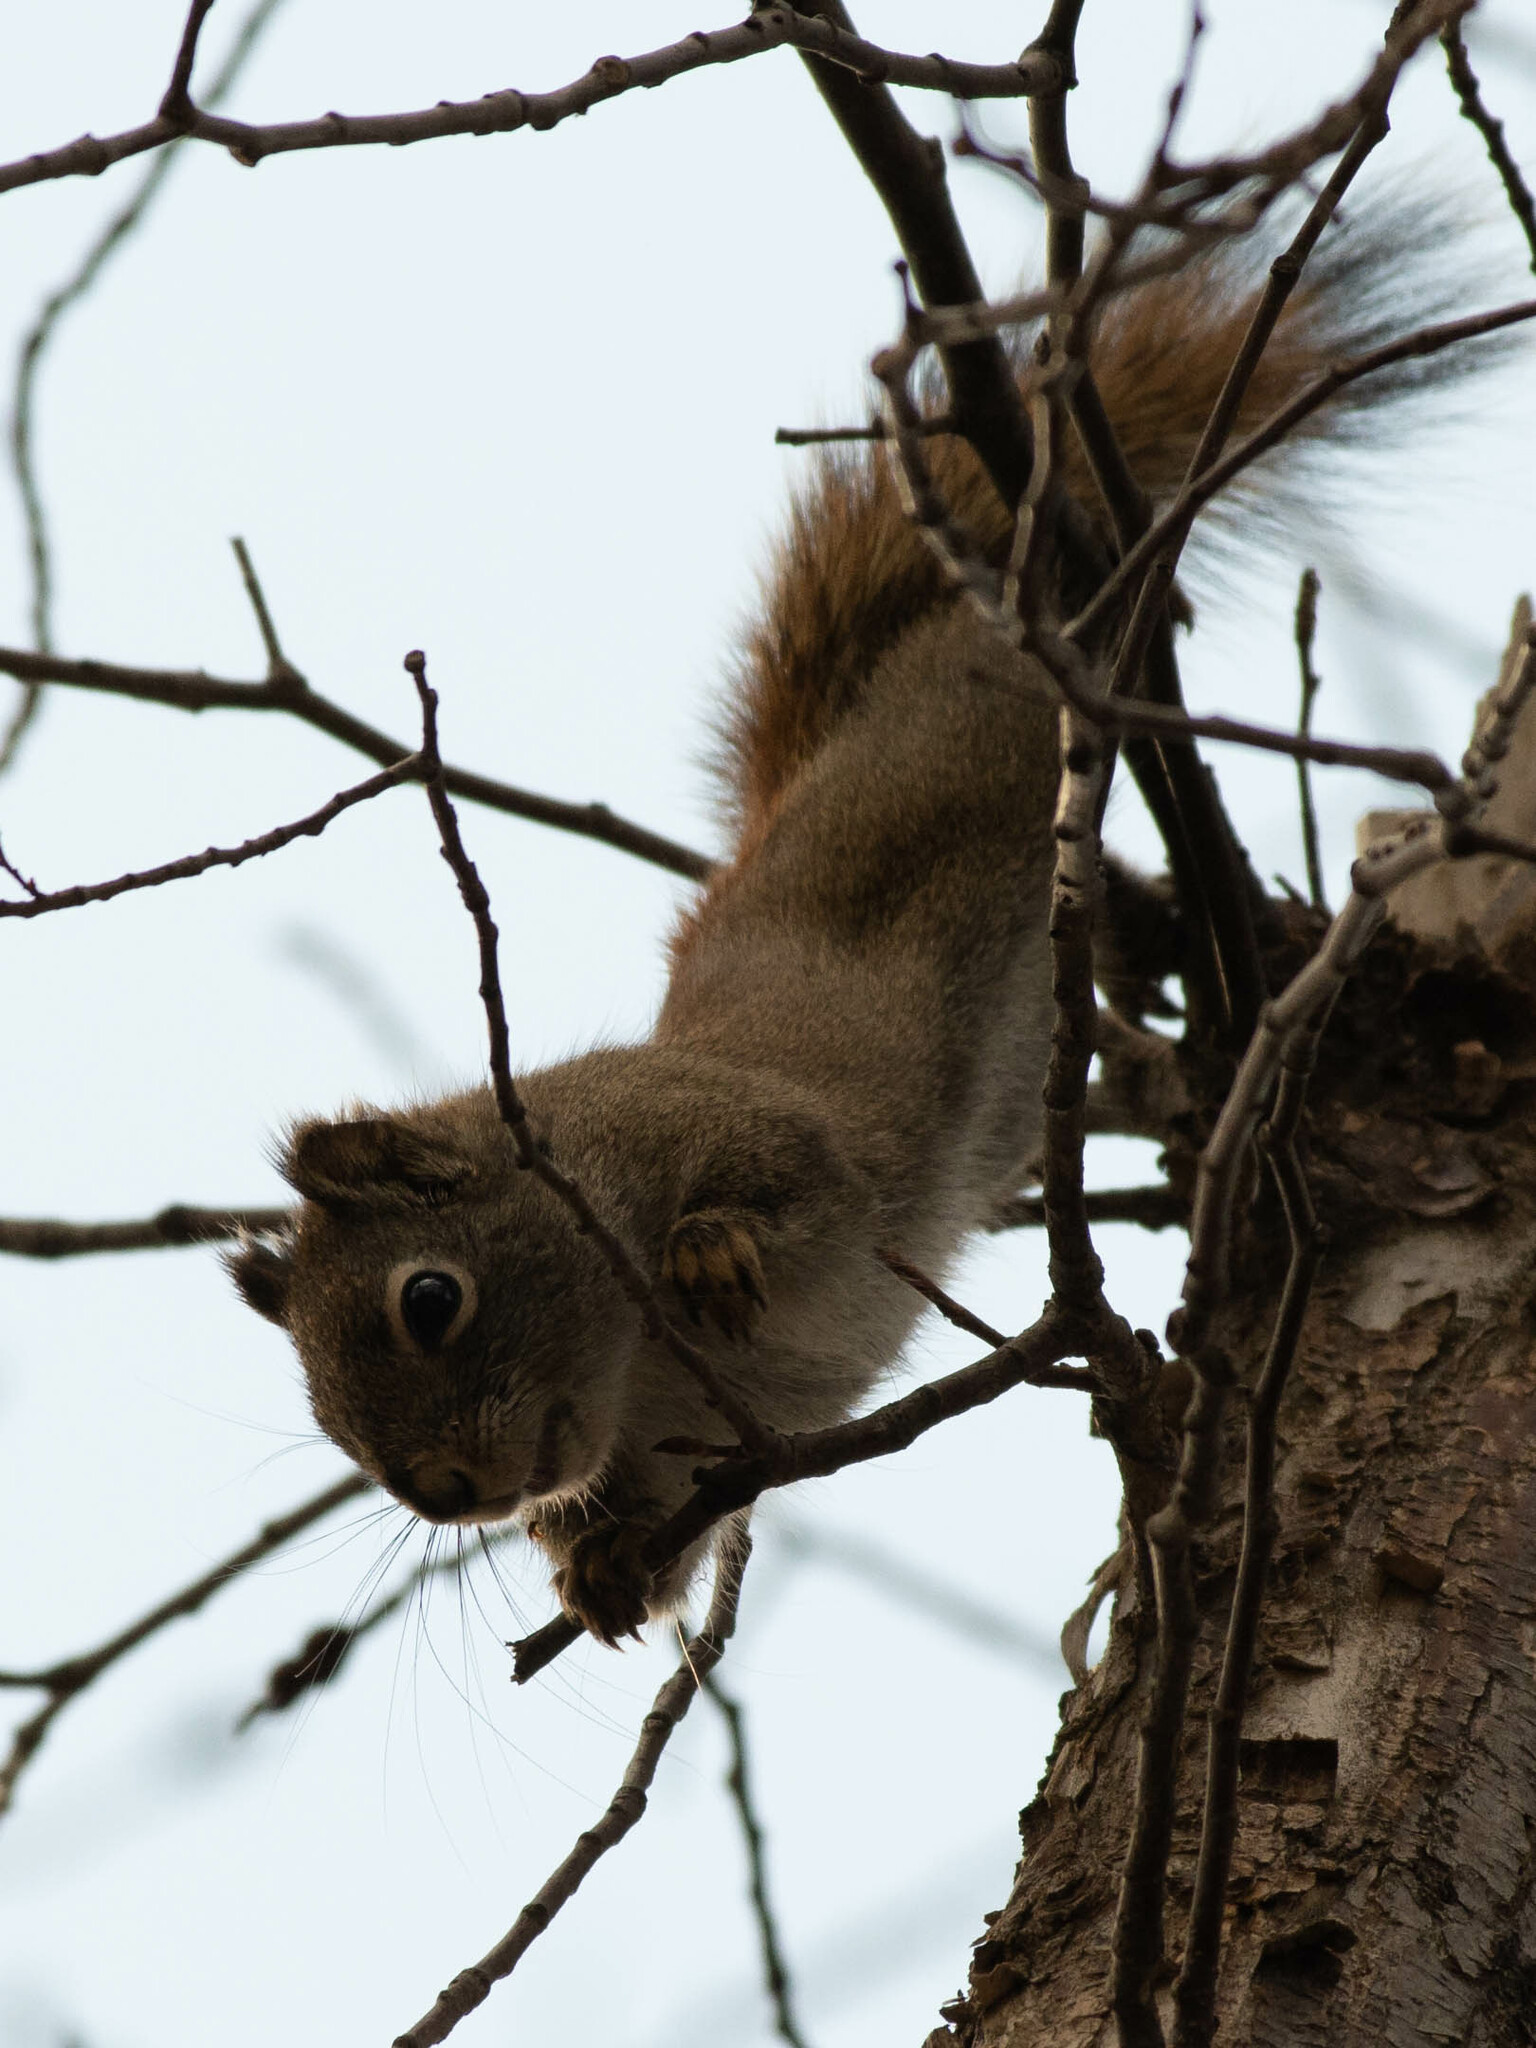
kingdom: Animalia
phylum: Chordata
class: Mammalia
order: Rodentia
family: Sciuridae
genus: Tamiasciurus
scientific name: Tamiasciurus hudsonicus
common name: Red squirrel
